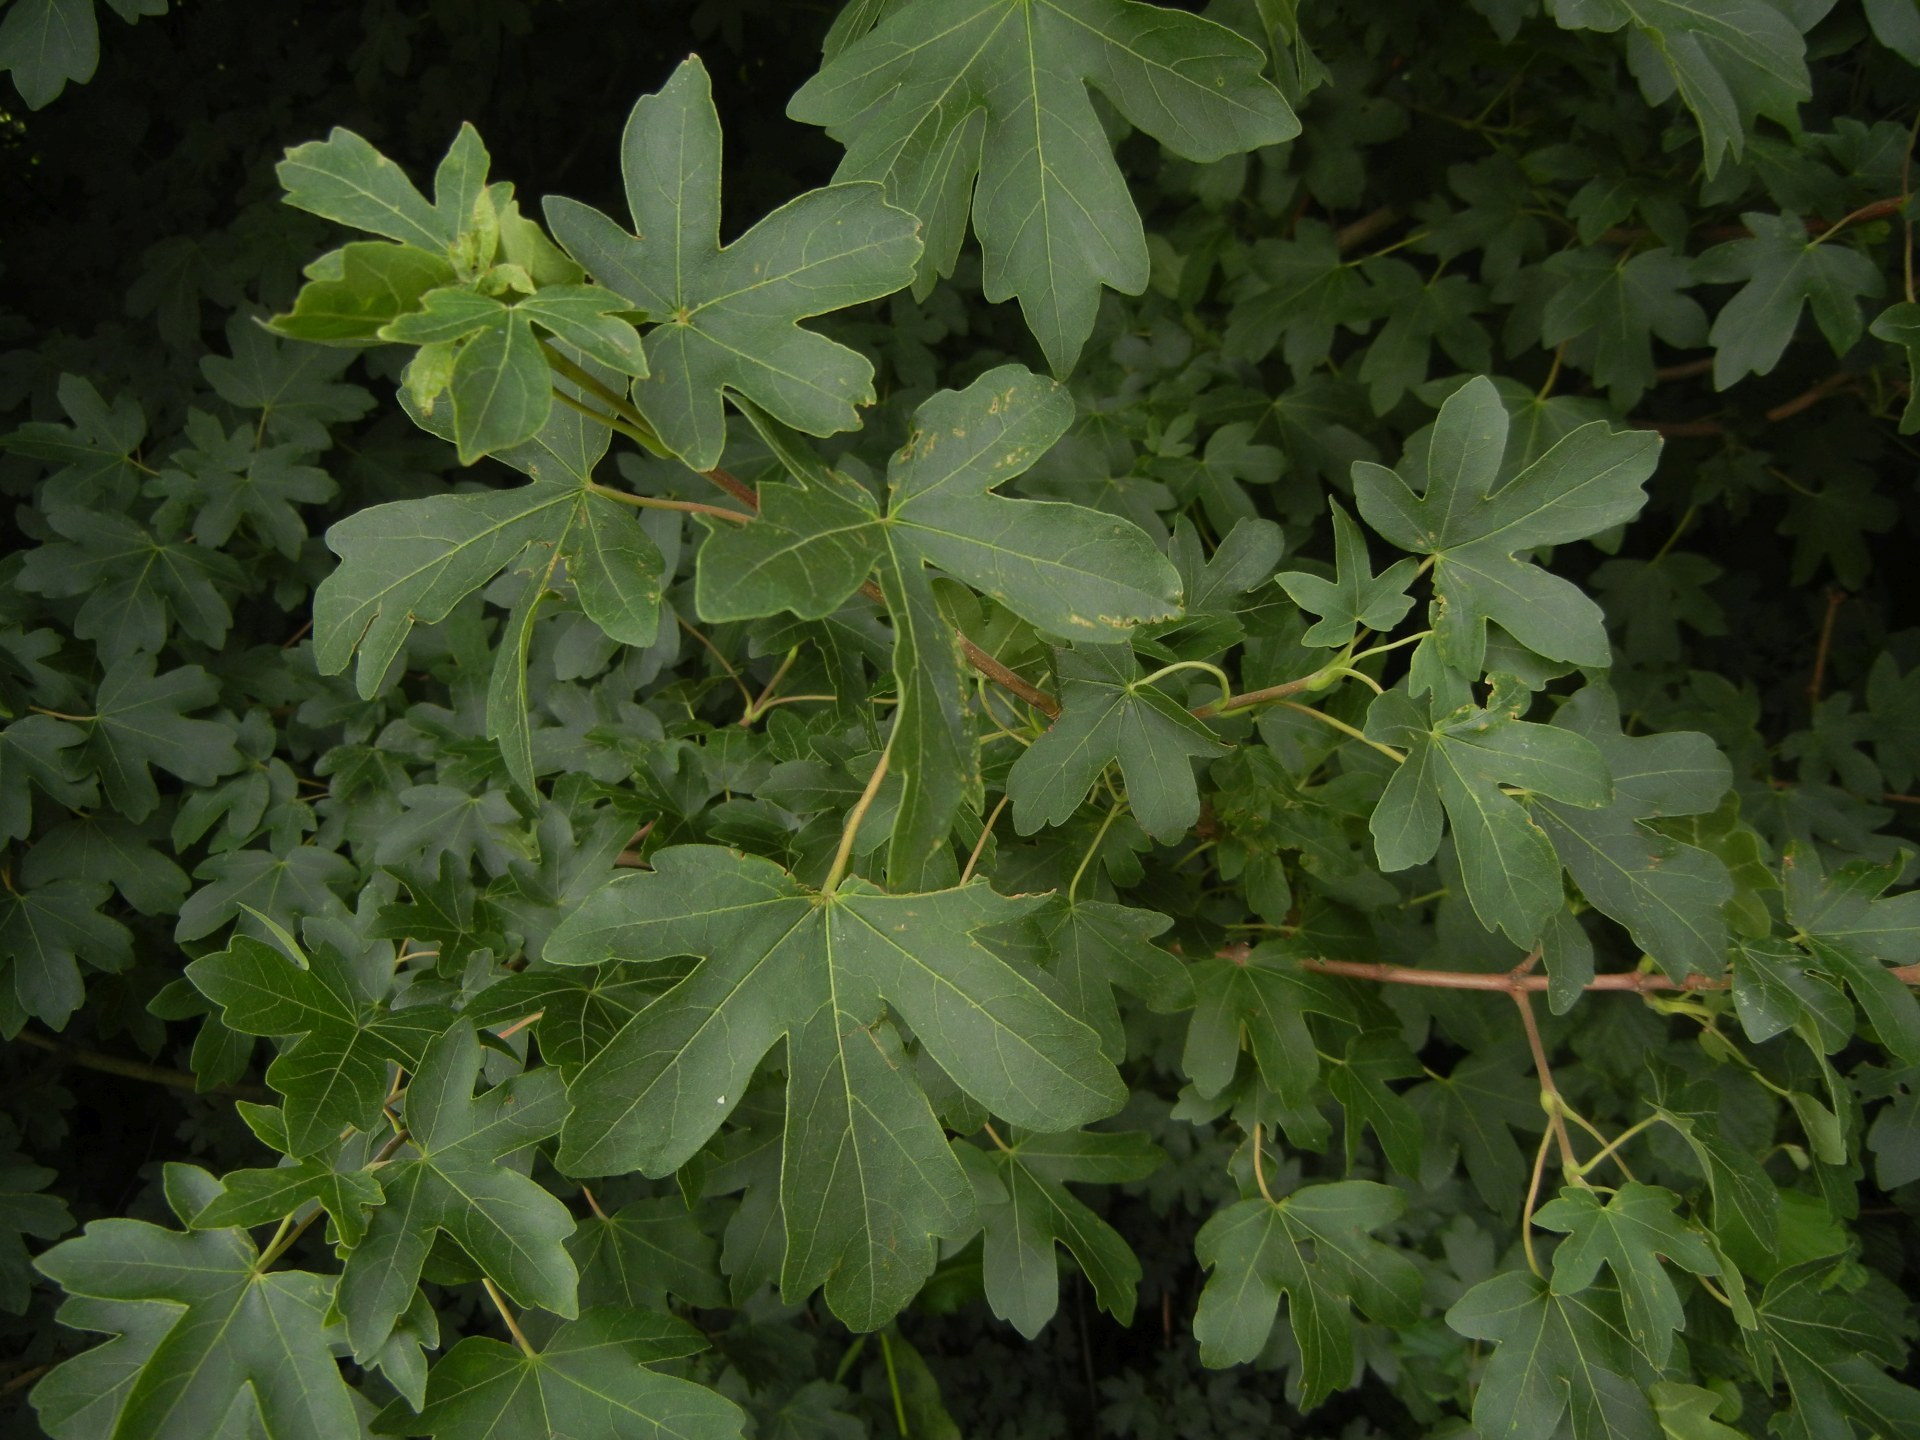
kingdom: Plantae
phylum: Tracheophyta
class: Magnoliopsida
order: Sapindales
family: Sapindaceae
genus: Acer
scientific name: Acer campestre
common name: Field maple
